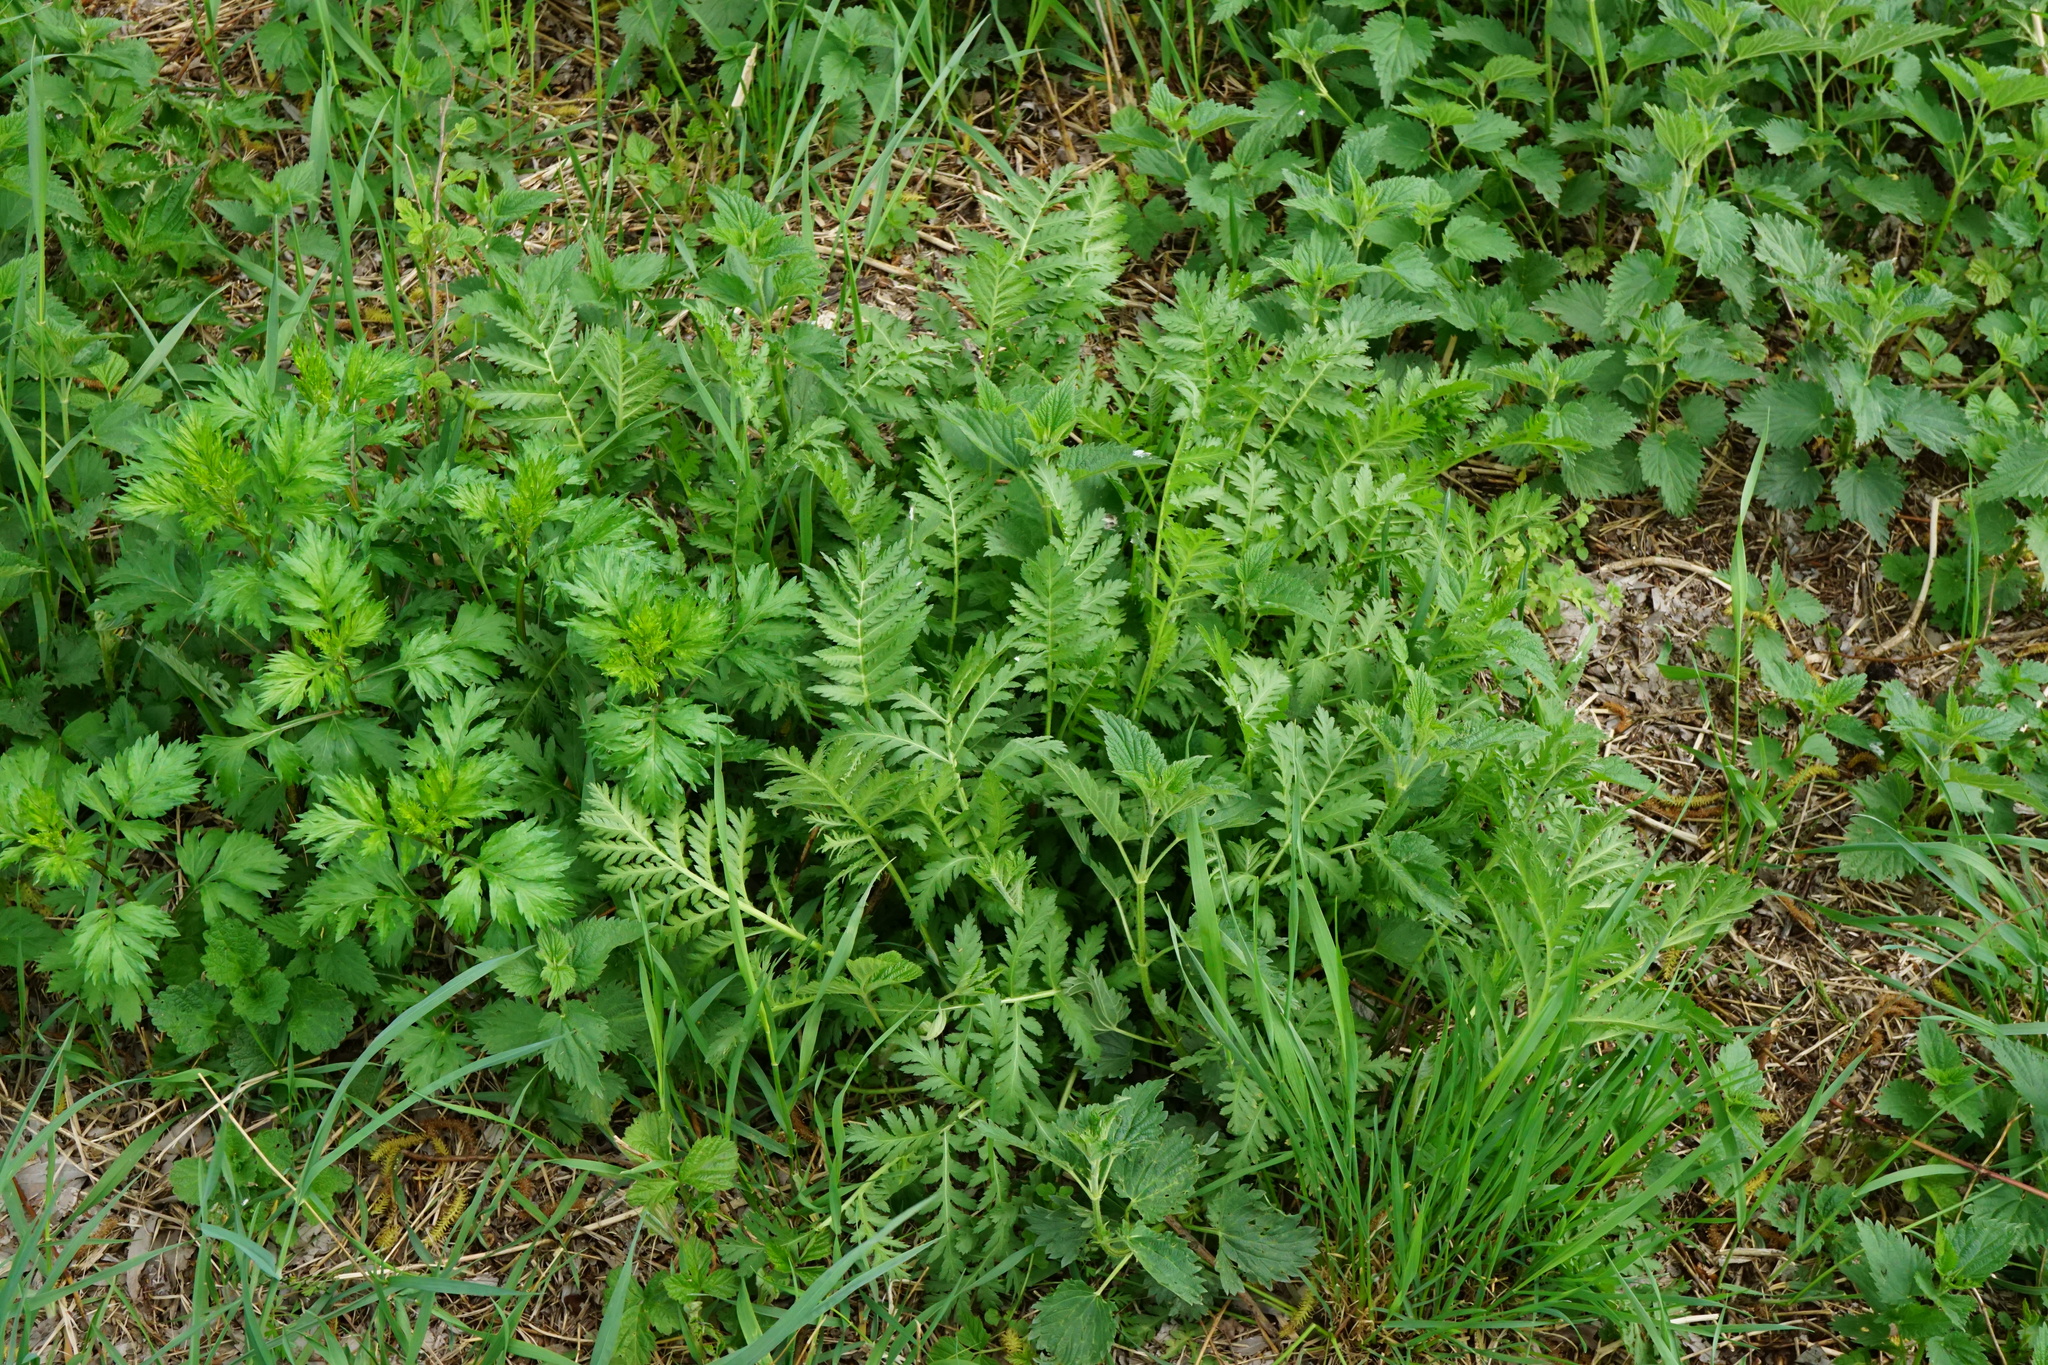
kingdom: Plantae
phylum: Tracheophyta
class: Magnoliopsida
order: Asterales
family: Asteraceae
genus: Tanacetum
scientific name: Tanacetum vulgare
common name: Common tansy
